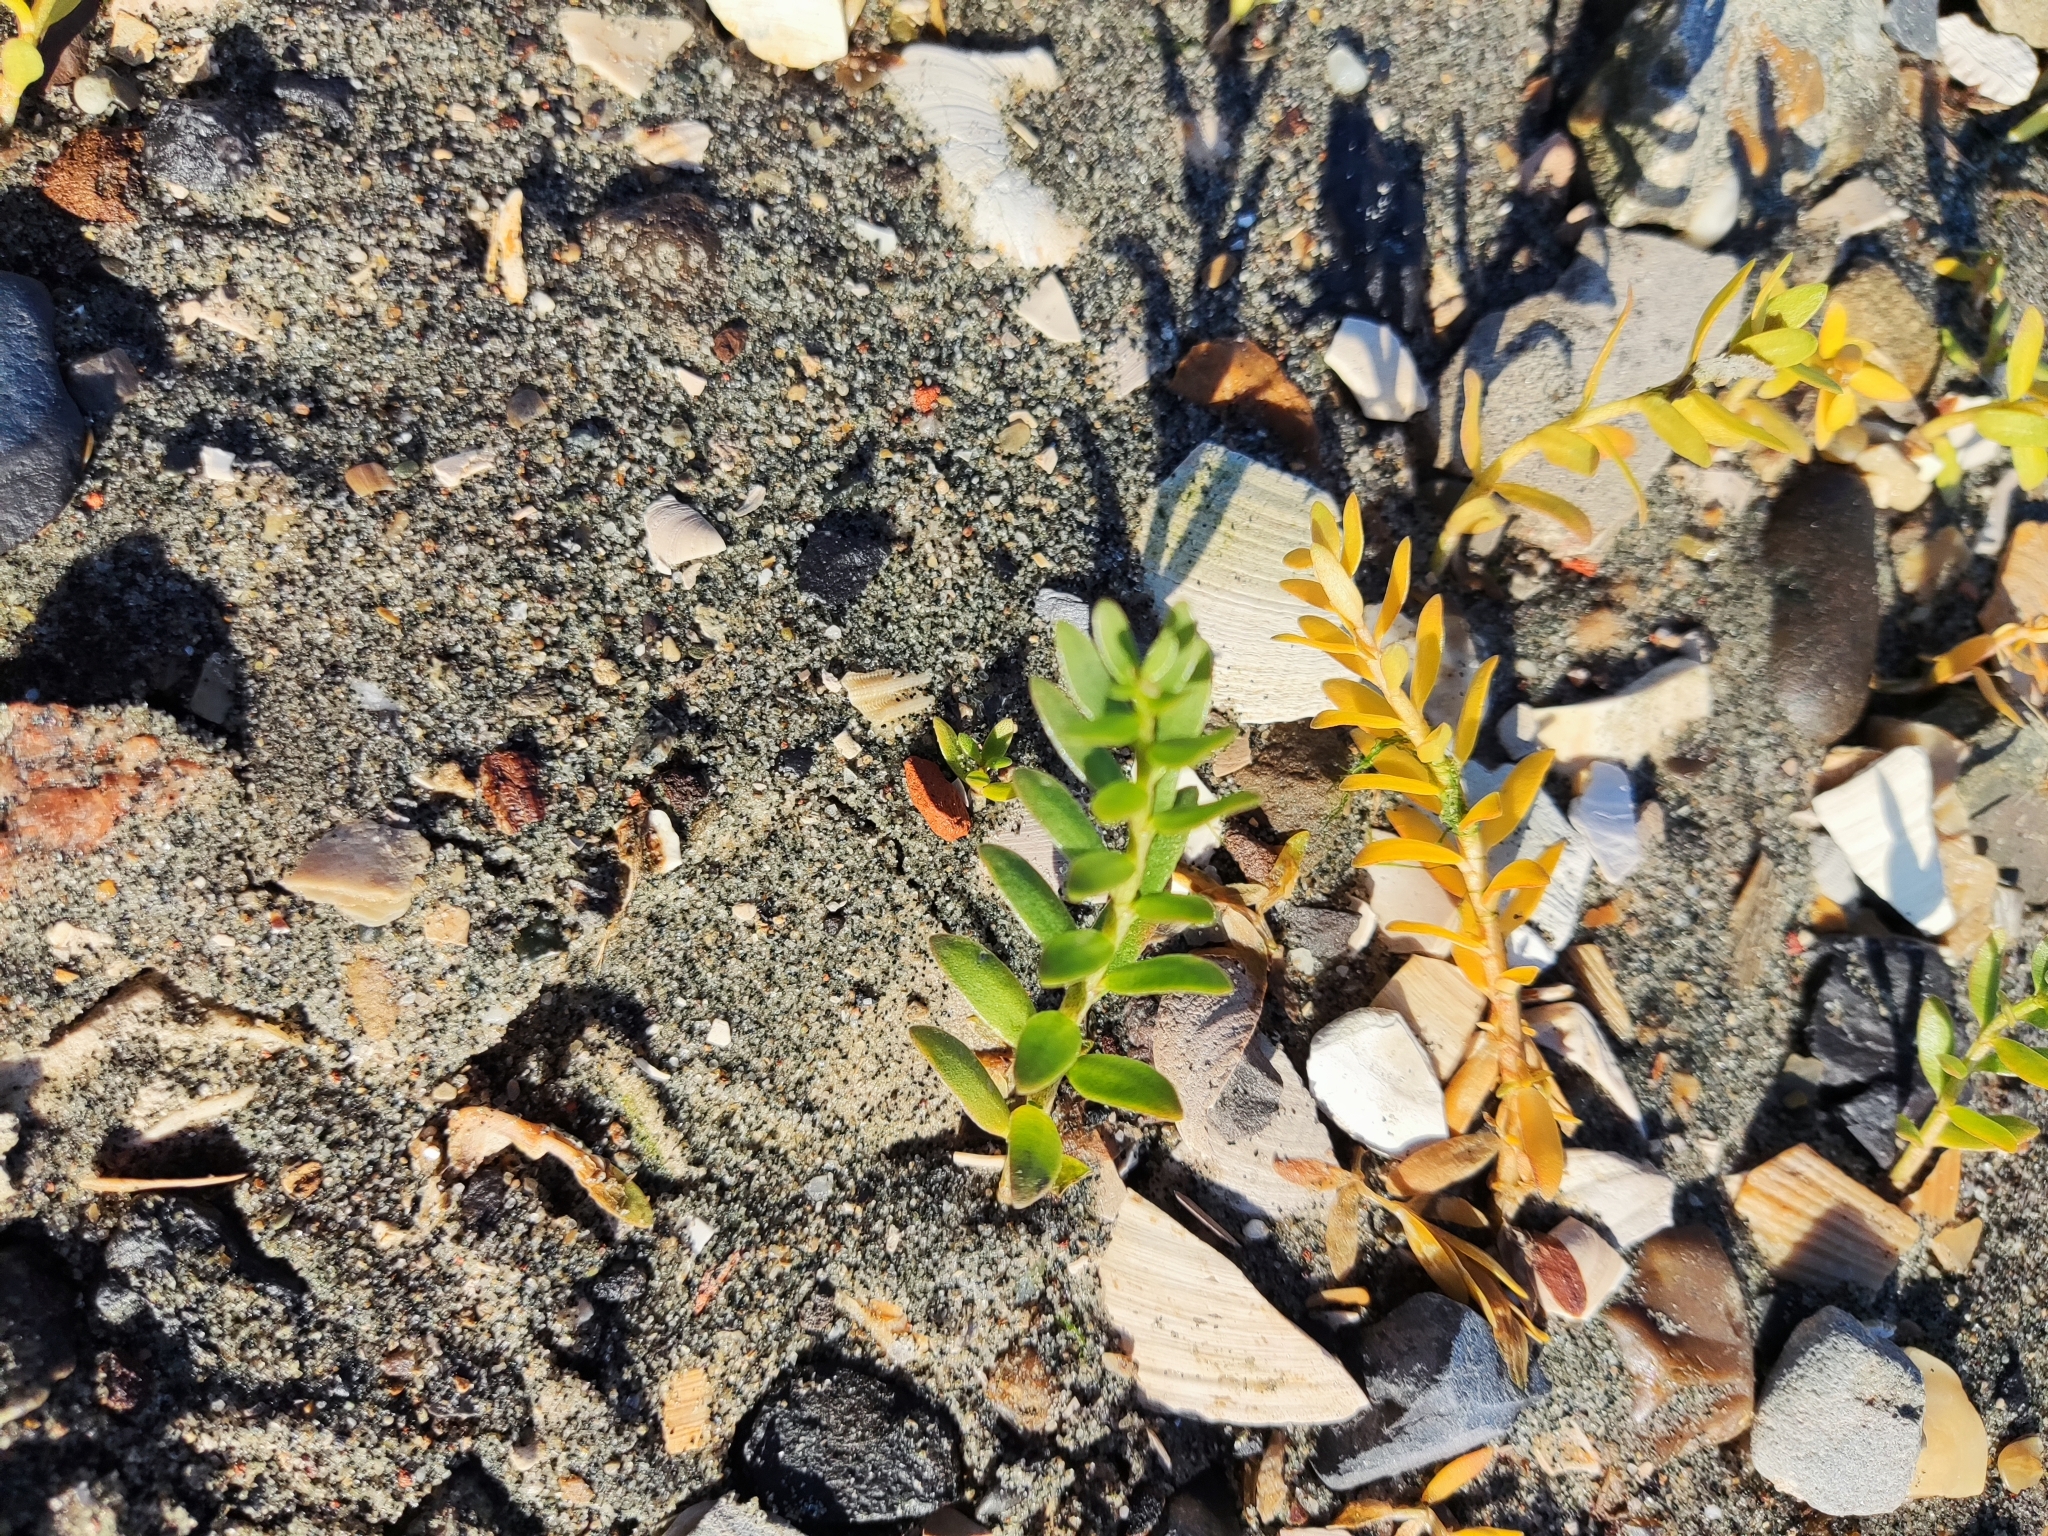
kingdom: Plantae
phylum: Tracheophyta
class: Magnoliopsida
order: Caryophyllales
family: Caryophyllaceae
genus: Honckenya
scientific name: Honckenya peploides
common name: Sea sandwort
